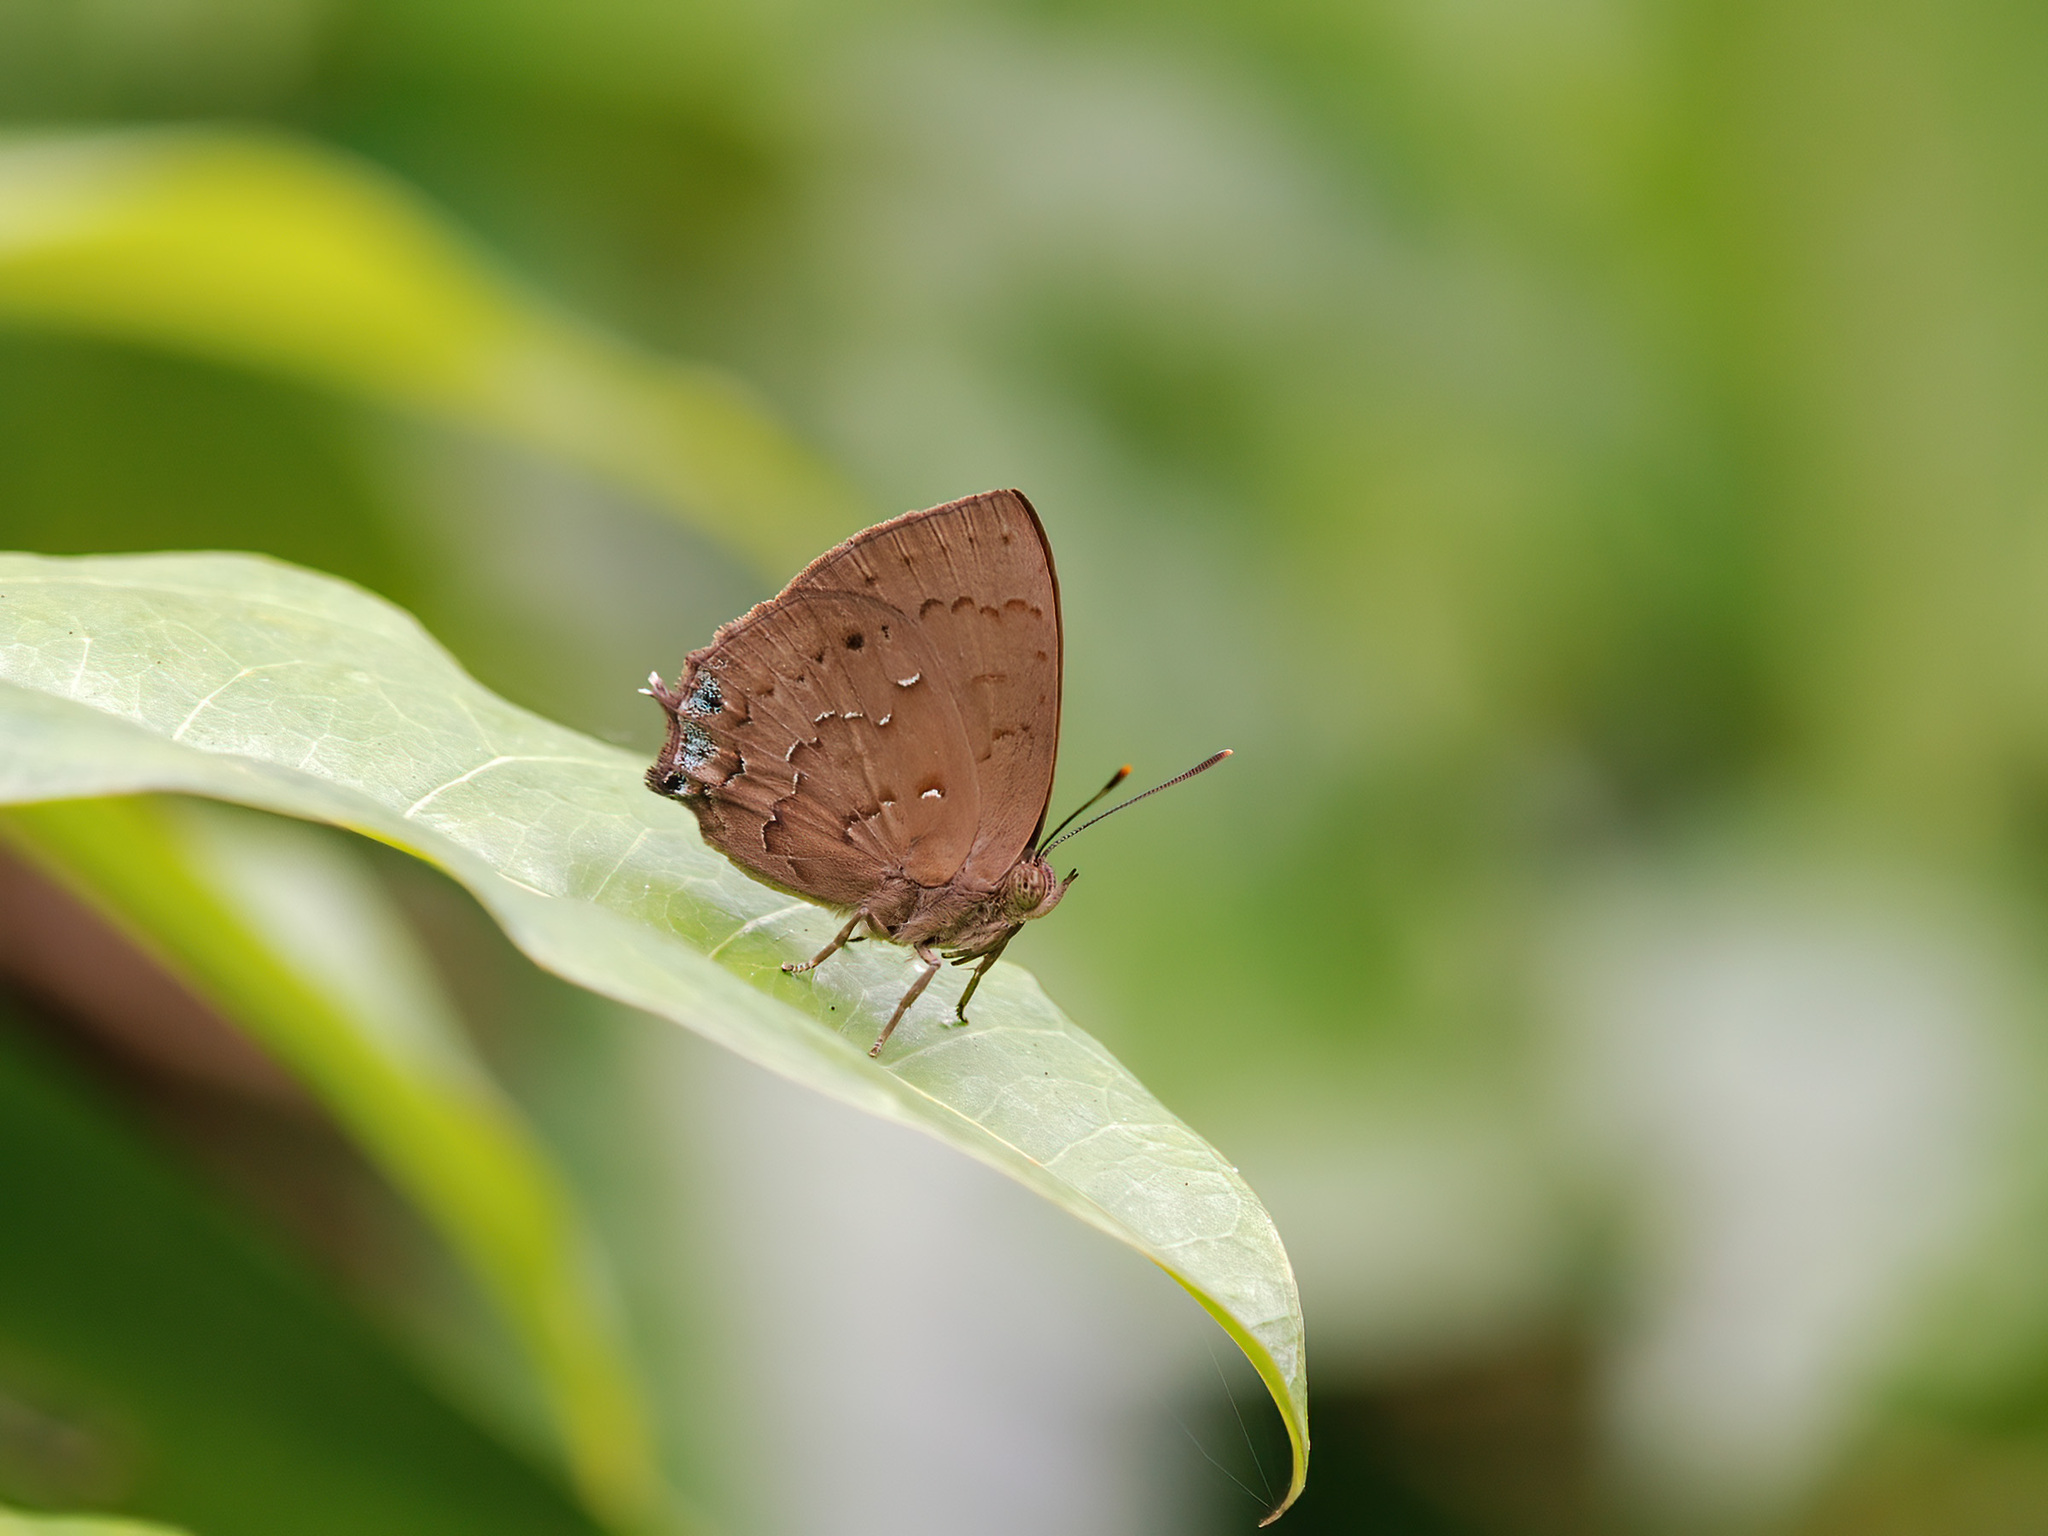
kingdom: Animalia
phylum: Arthropoda
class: Insecta
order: Lepidoptera
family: Lycaenidae
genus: Surendra
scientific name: Surendra vivarna
